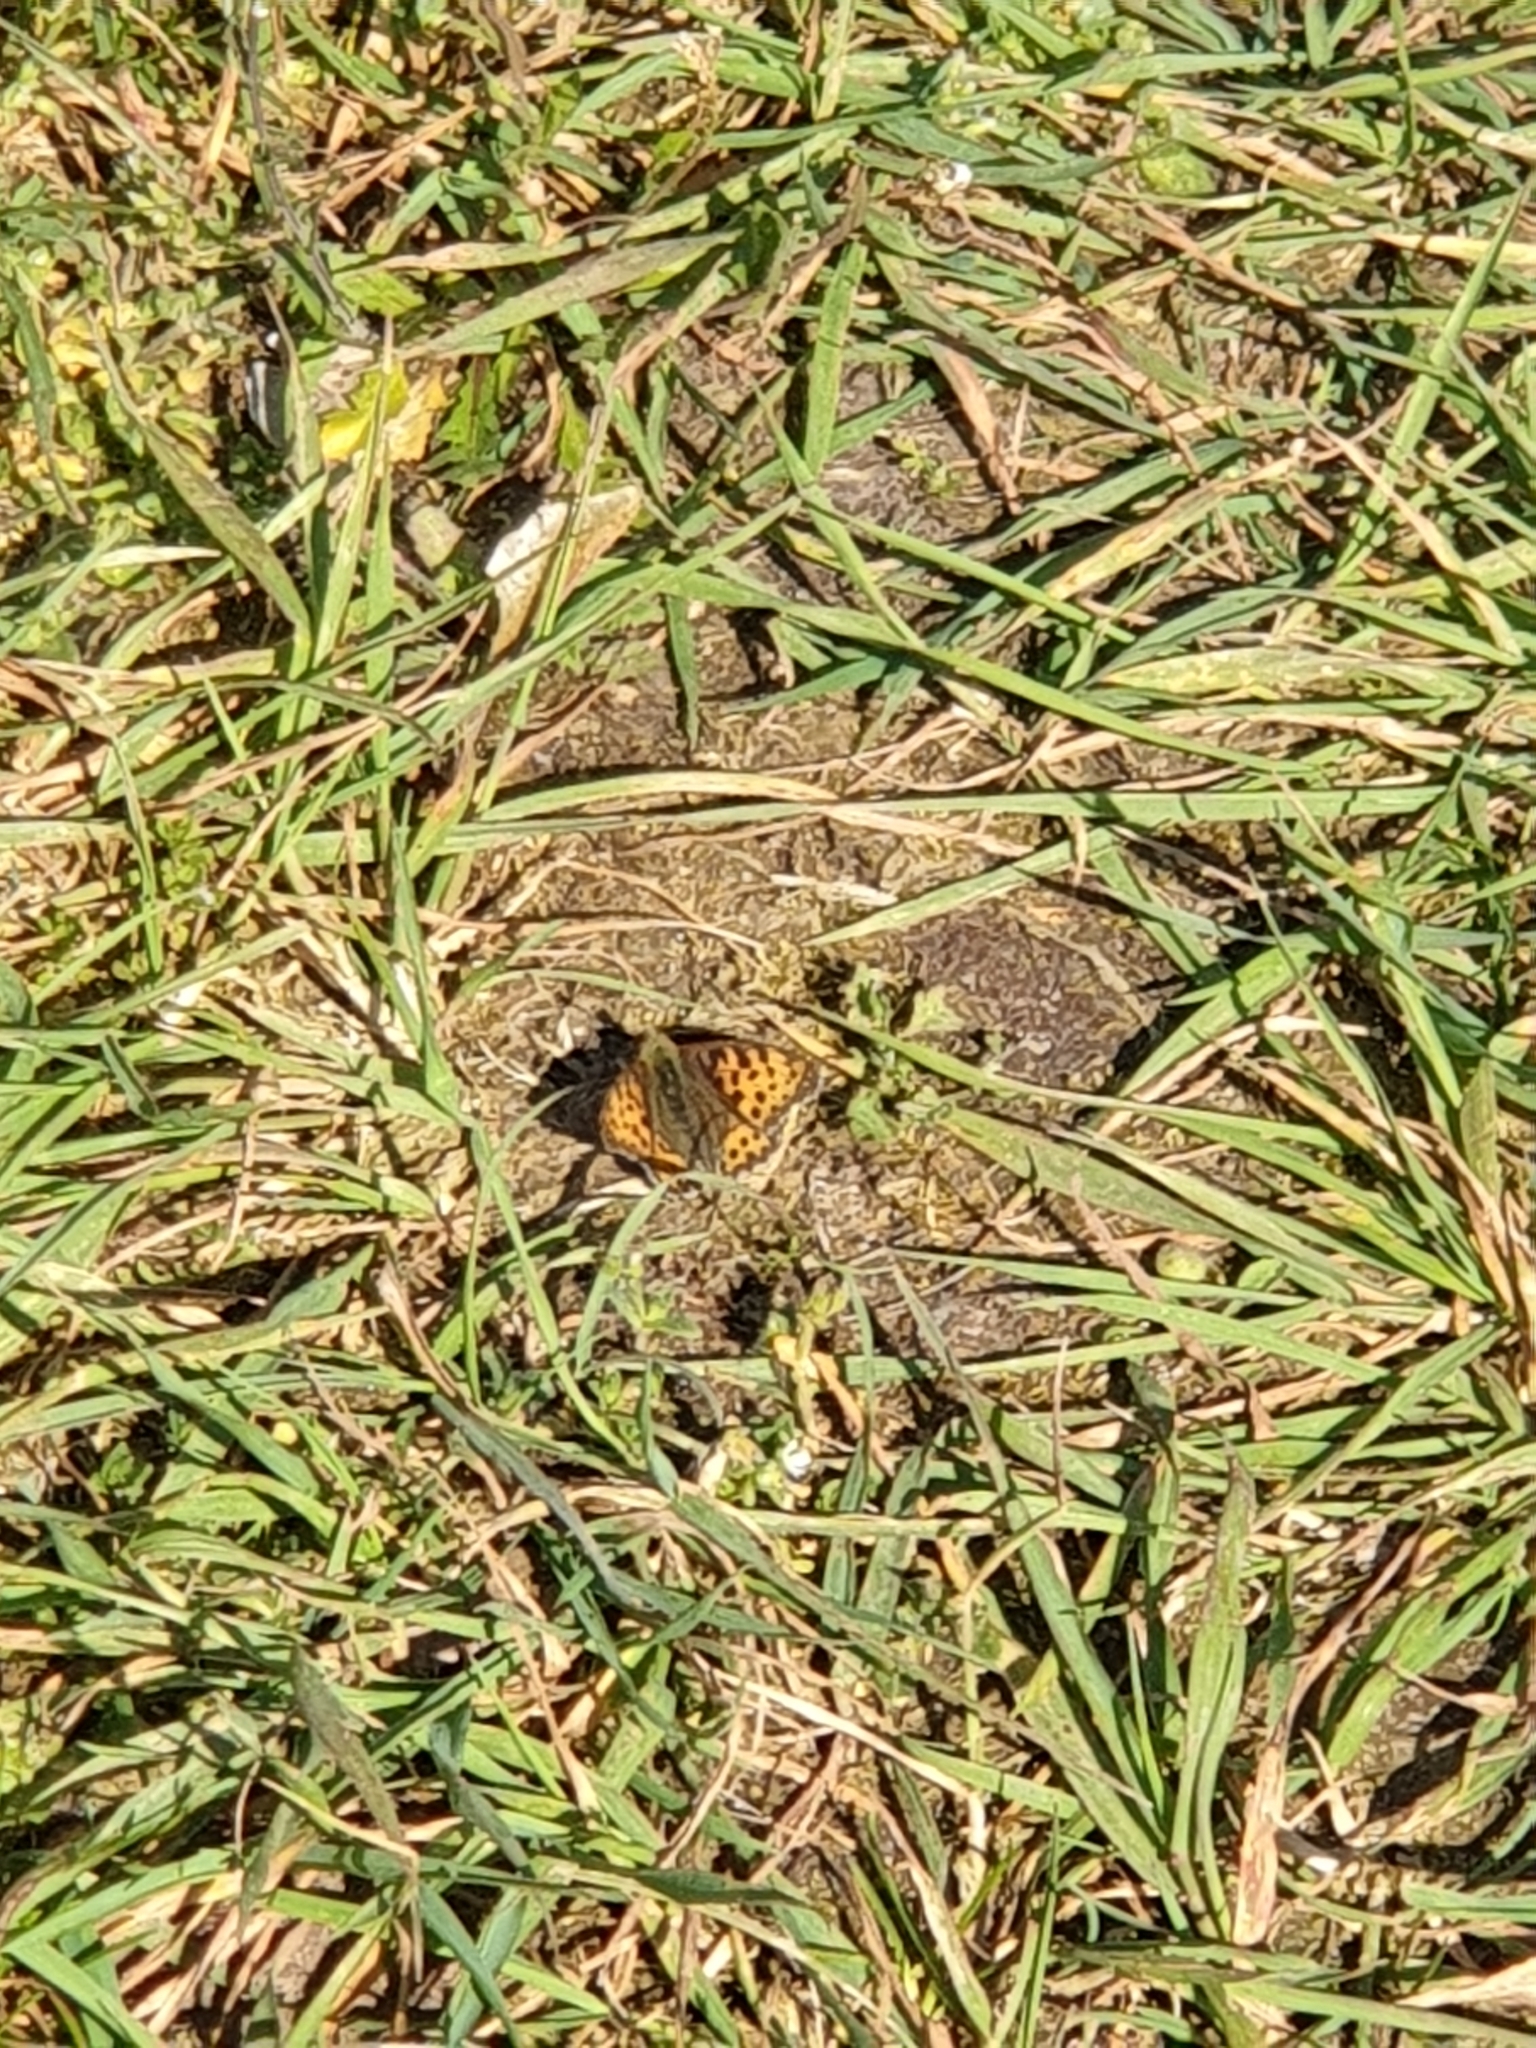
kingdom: Animalia
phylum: Arthropoda
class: Insecta
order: Lepidoptera
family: Nymphalidae
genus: Issoria
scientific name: Issoria lathonia
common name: Queen of spain fritillary
